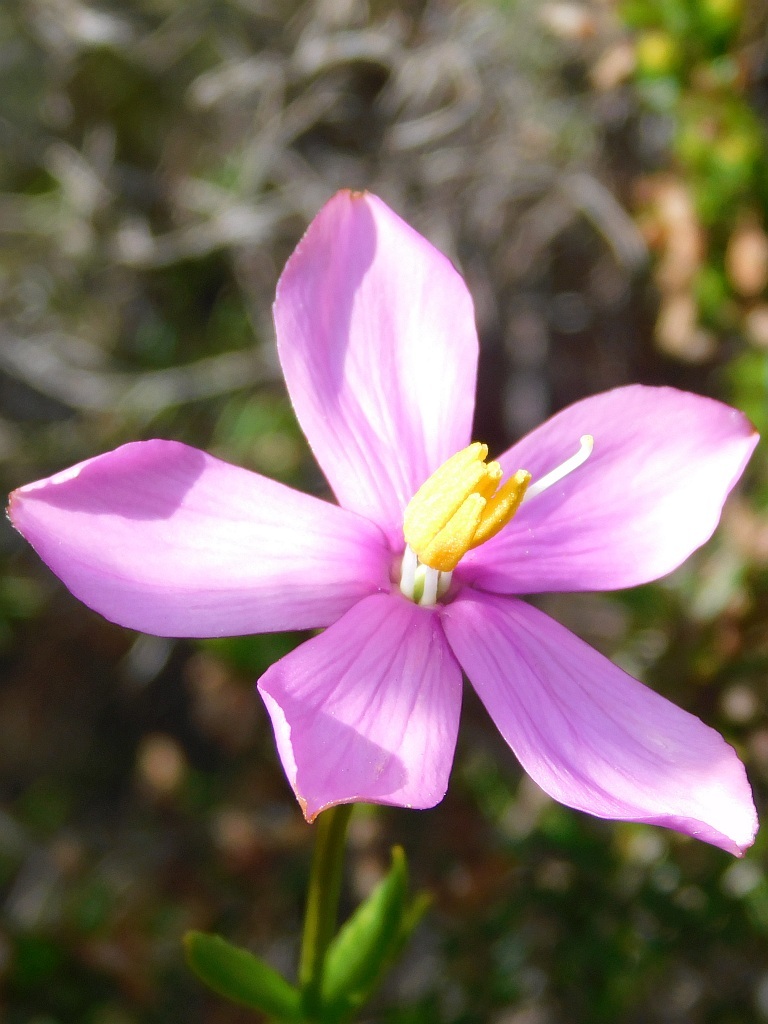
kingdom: Plantae
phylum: Tracheophyta
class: Magnoliopsida
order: Gentianales
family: Gentianaceae
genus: Chironia
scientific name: Chironia tetragona
